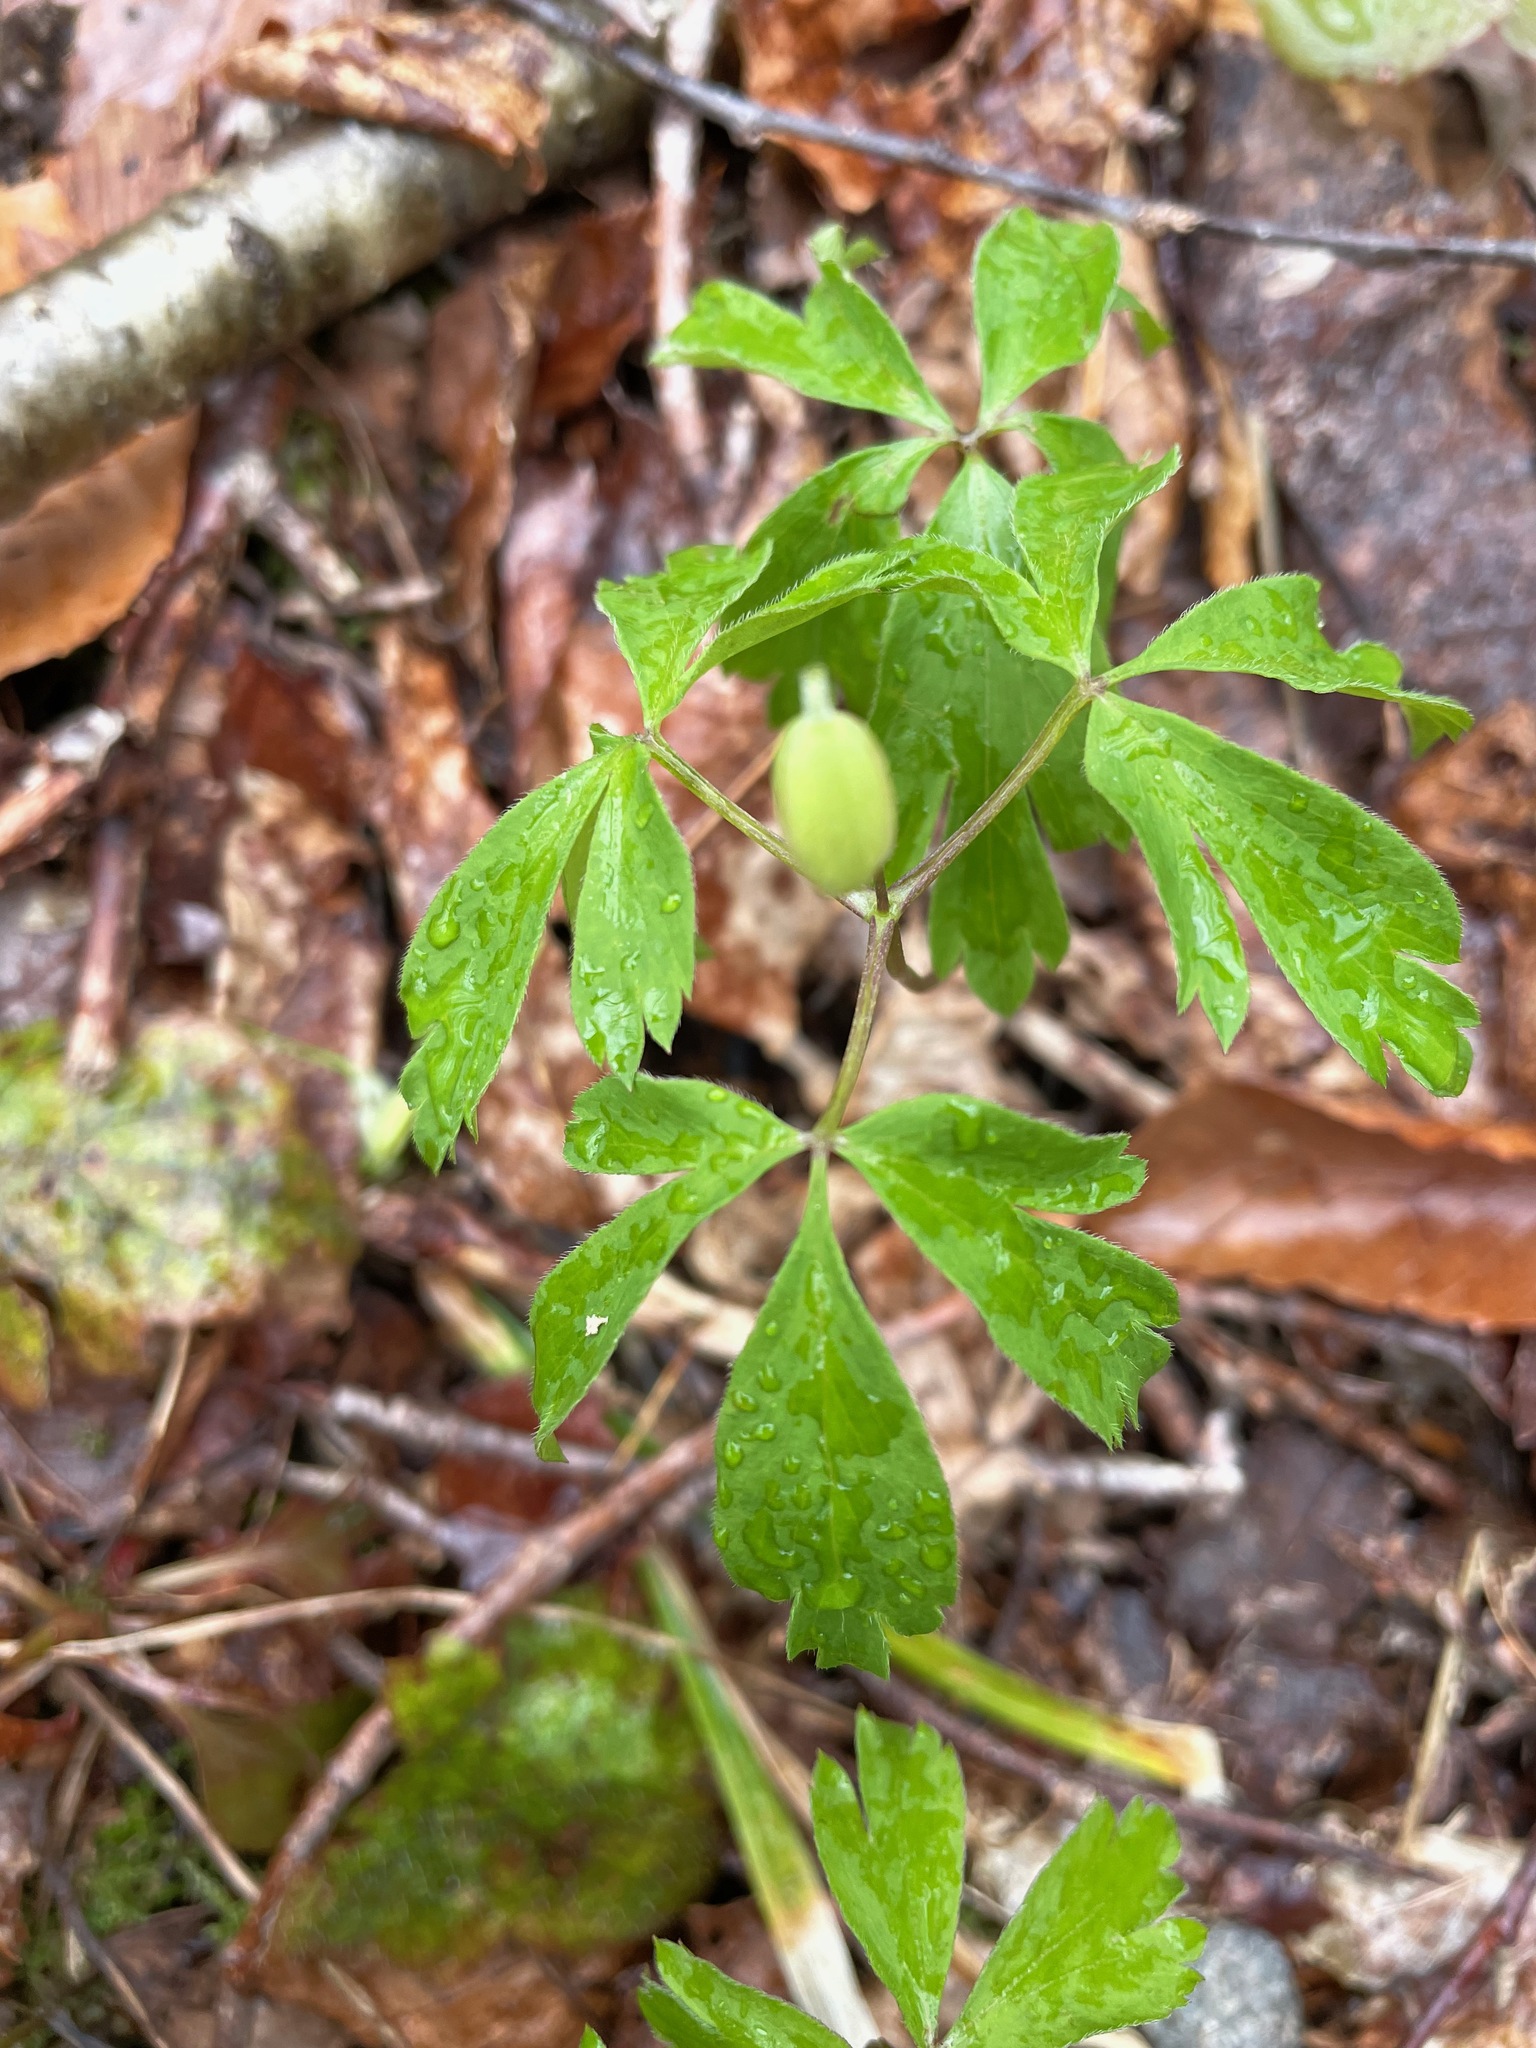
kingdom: Plantae
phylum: Tracheophyta
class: Magnoliopsida
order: Ranunculales
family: Ranunculaceae
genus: Anemone
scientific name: Anemone quinquefolia
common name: Wood anemone
